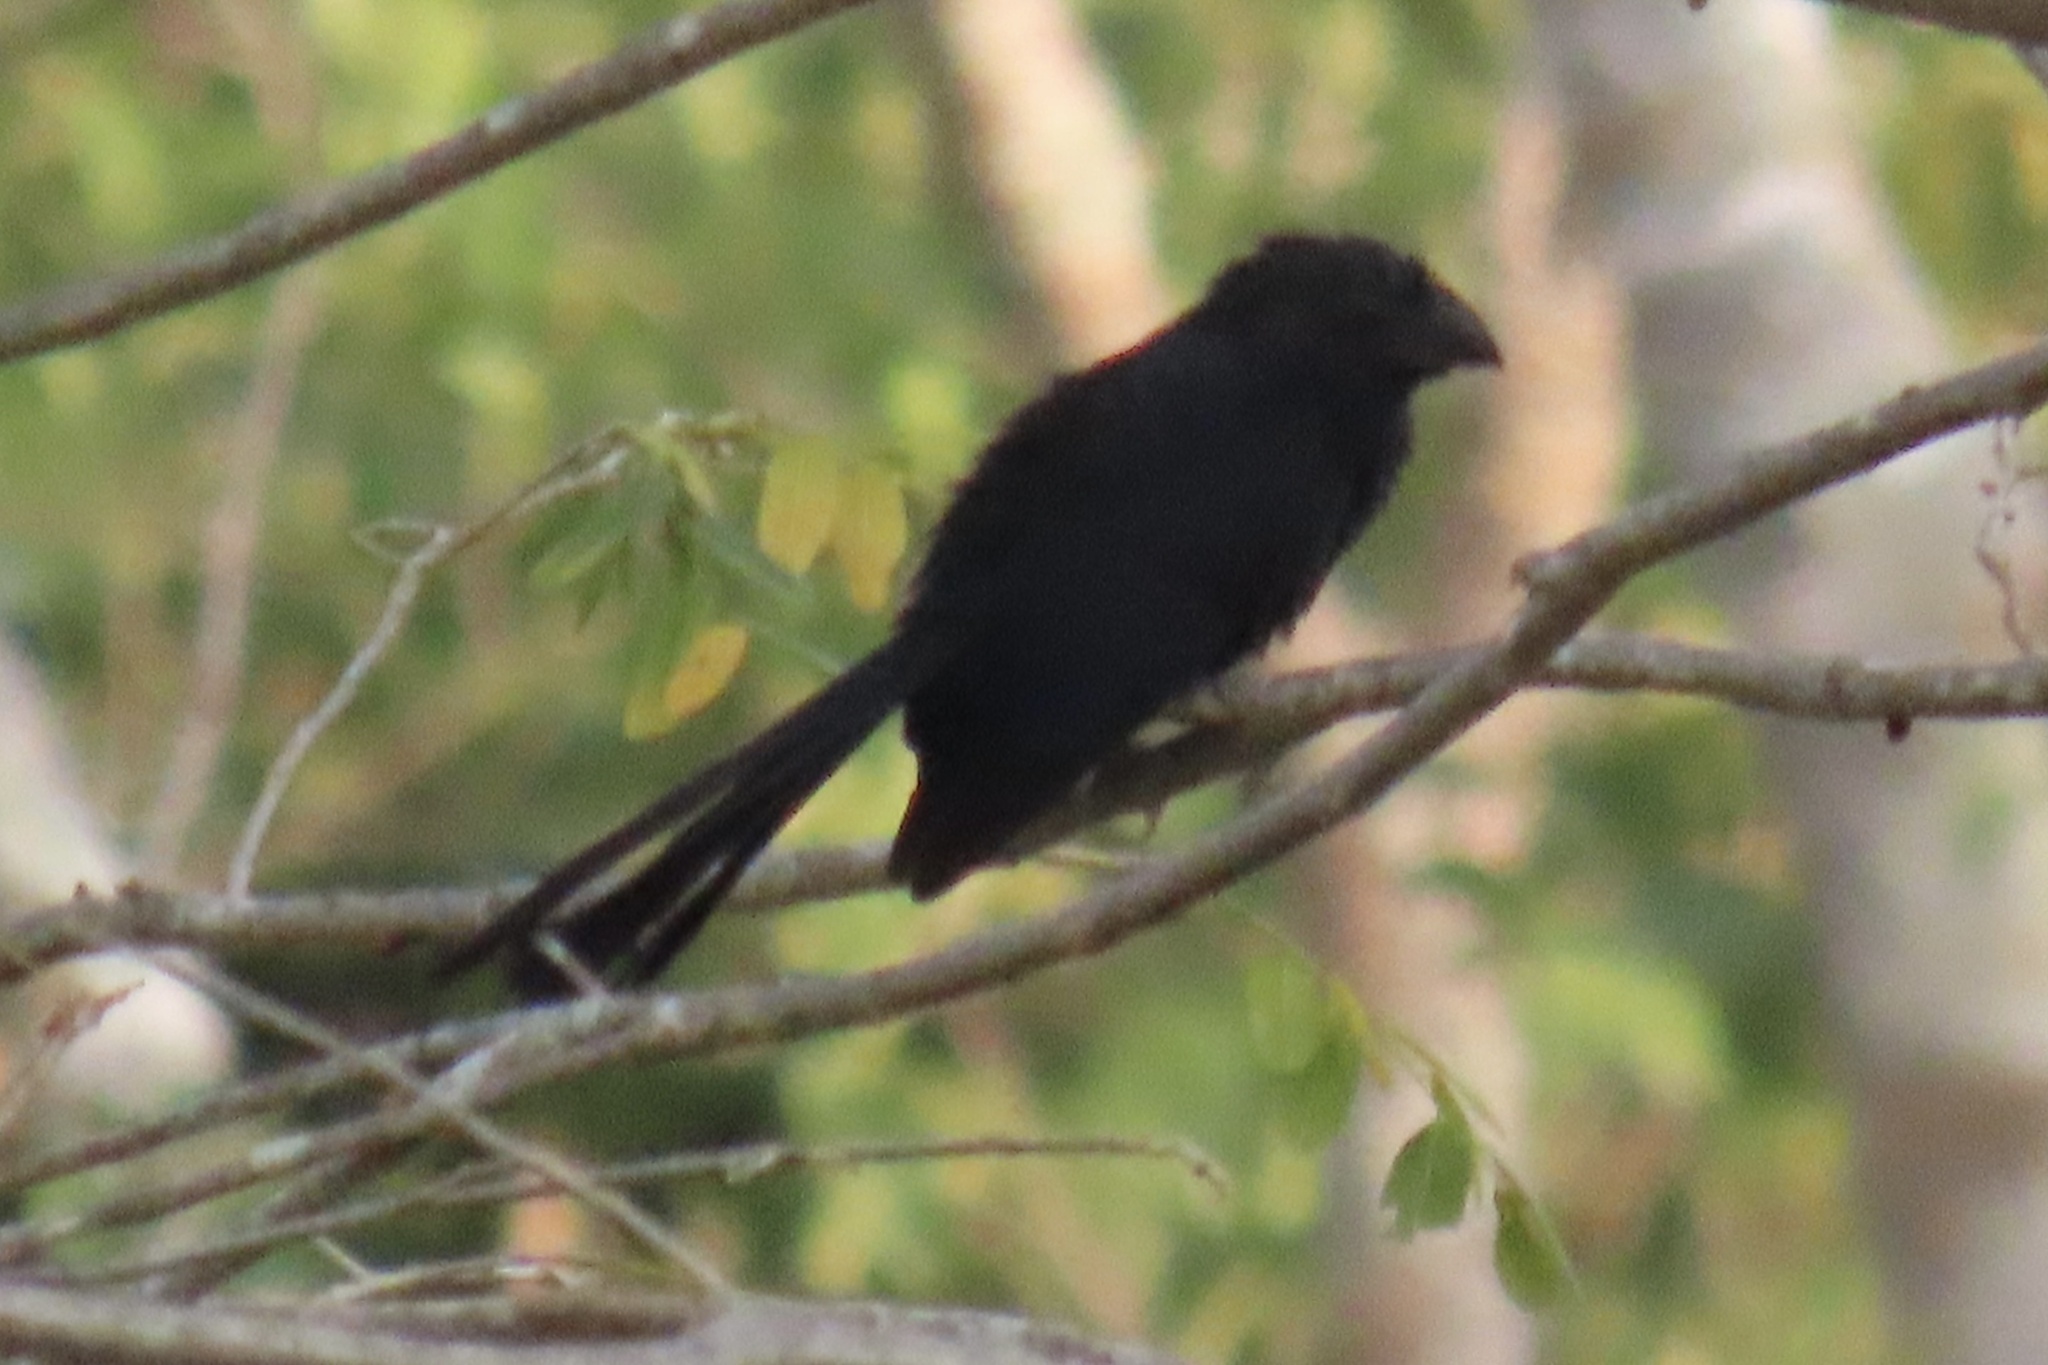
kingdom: Animalia
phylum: Chordata
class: Aves
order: Cuculiformes
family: Cuculidae
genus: Crotophaga
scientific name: Crotophaga sulcirostris
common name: Groove-billed ani
